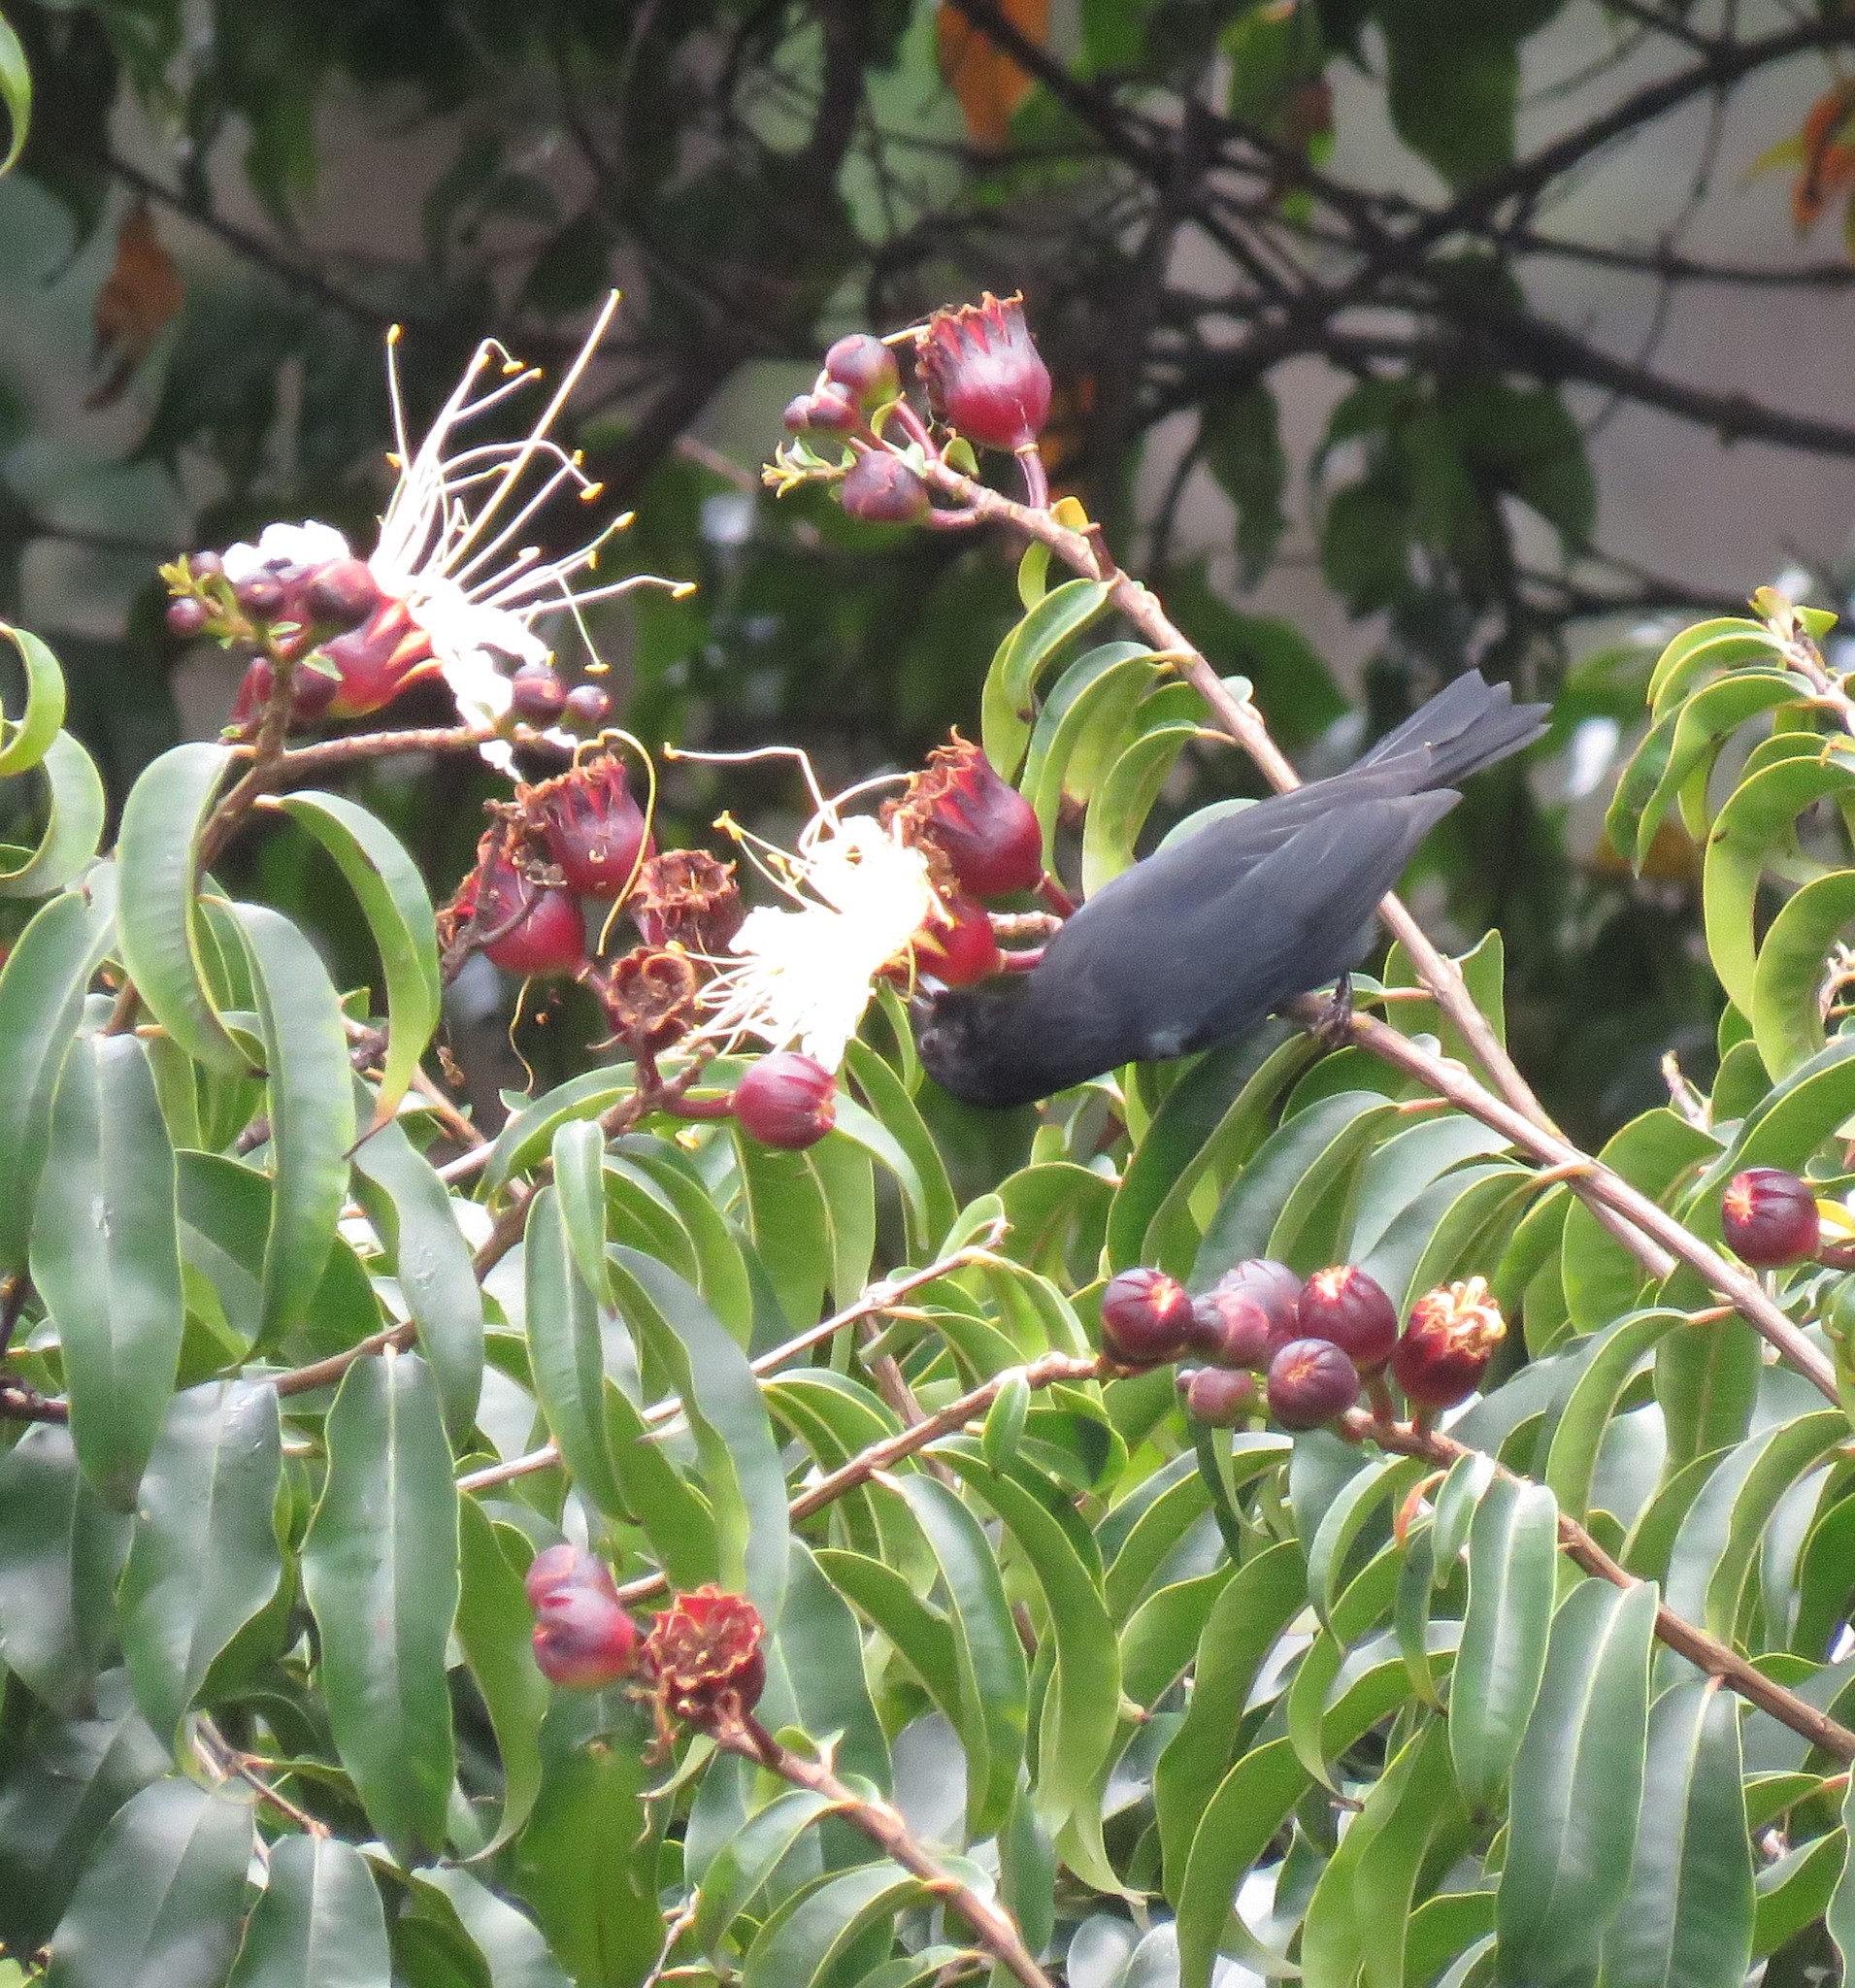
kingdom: Animalia
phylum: Chordata
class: Aves
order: Passeriformes
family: Thraupidae
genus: Diglossa
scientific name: Diglossa humeralis
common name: Black flowerpiercer
